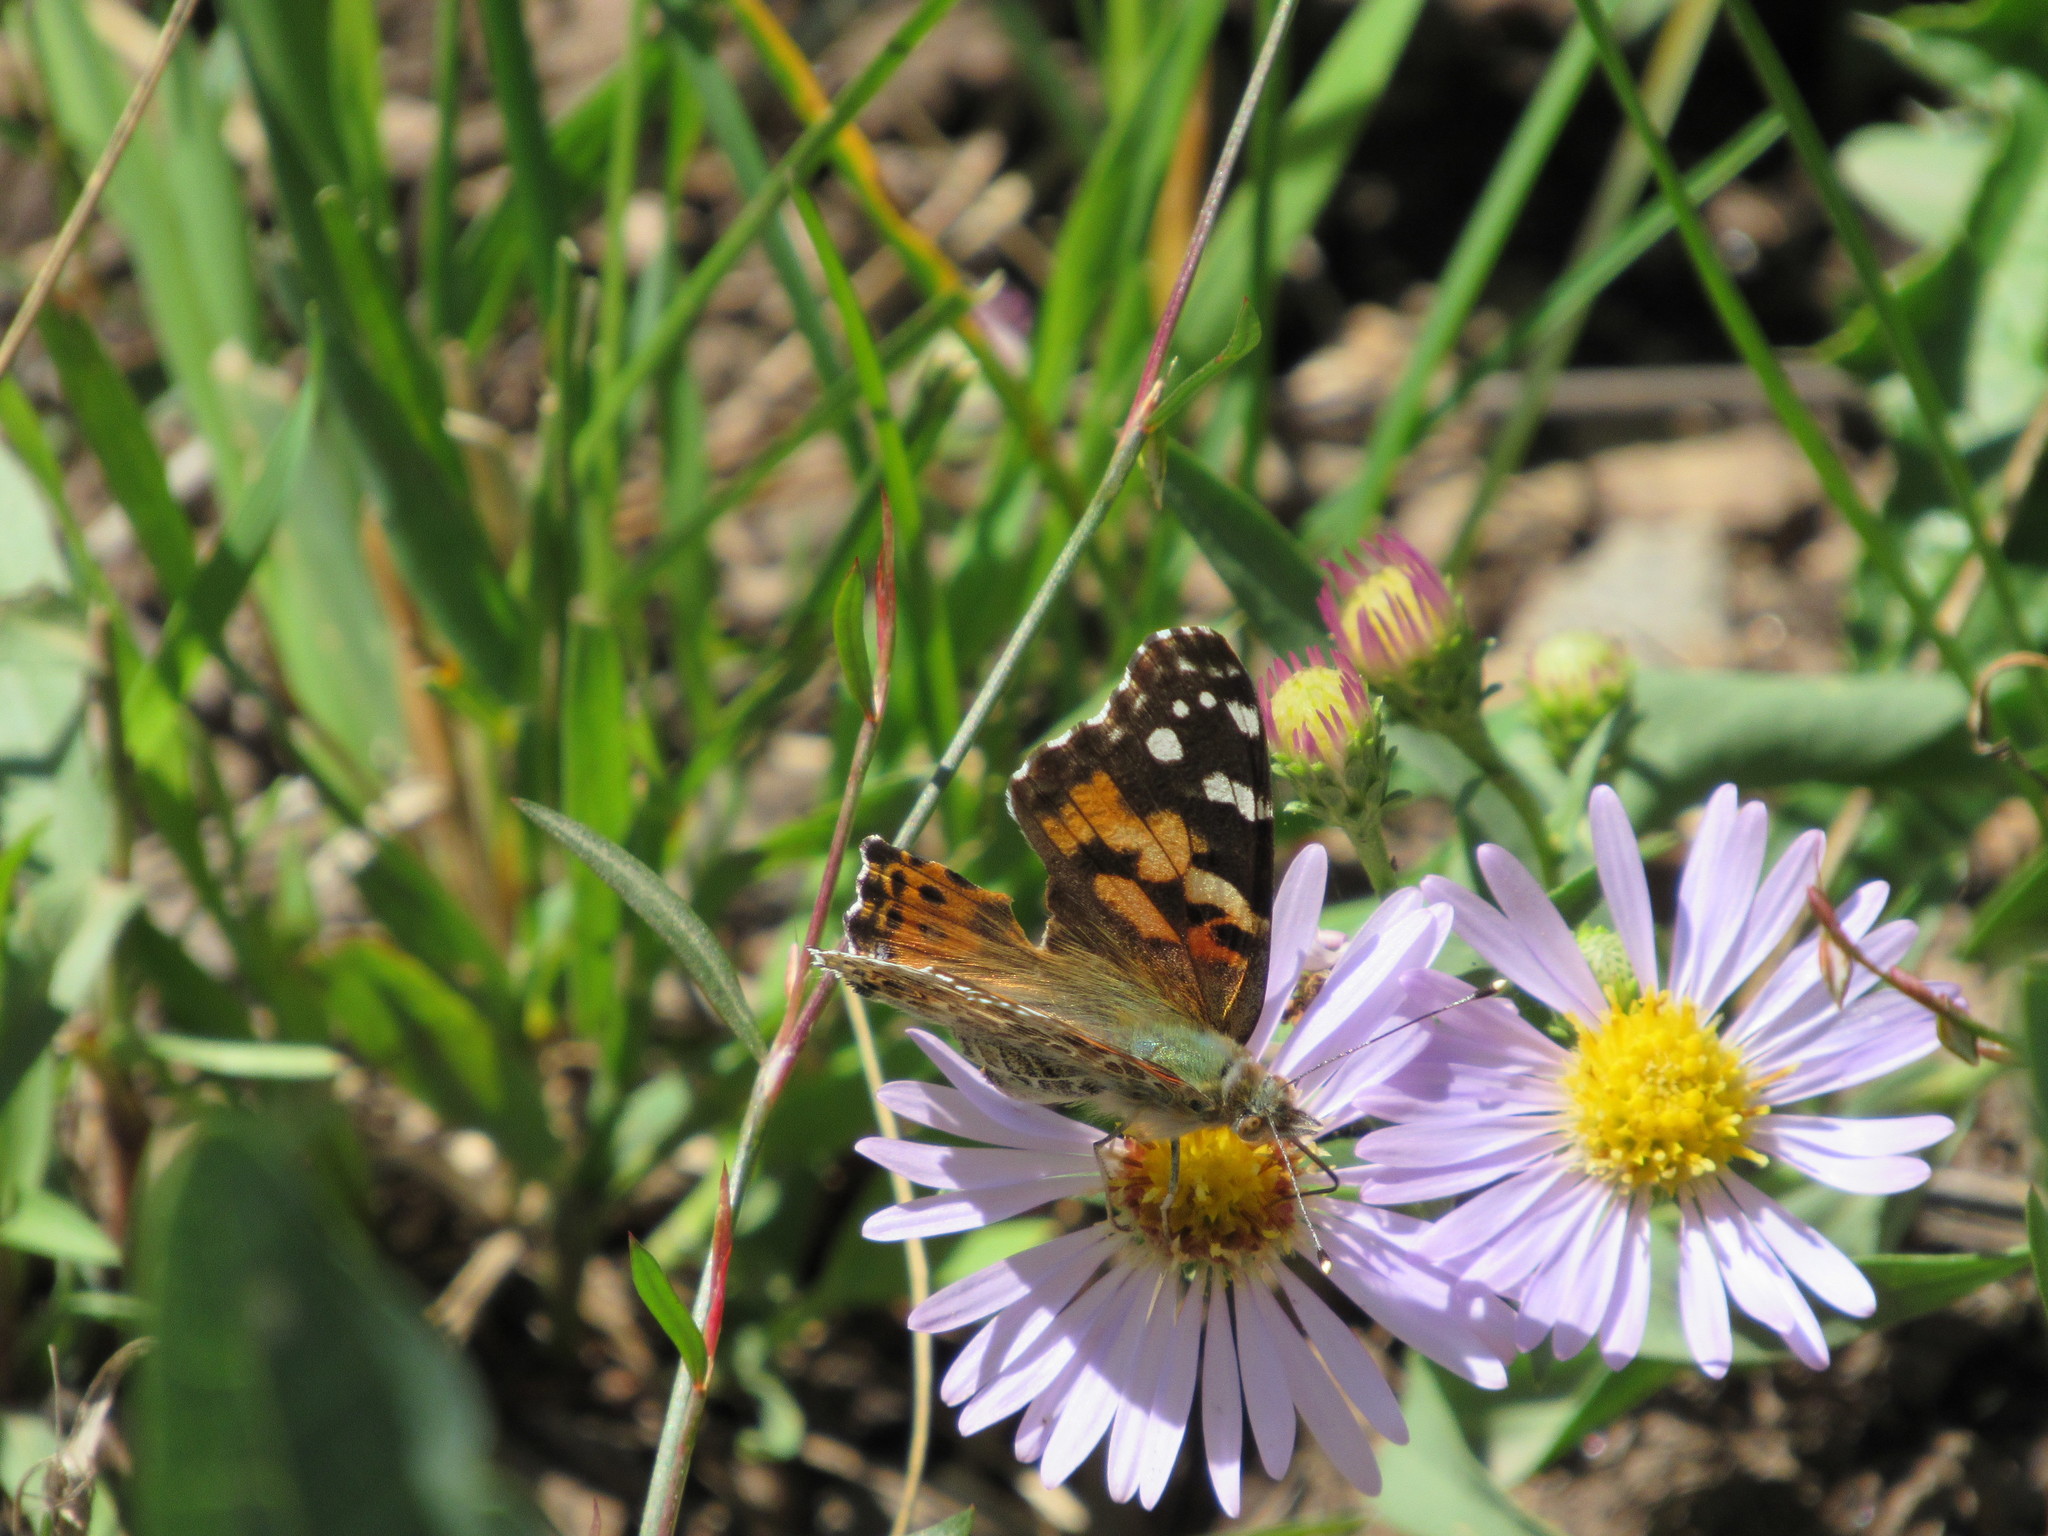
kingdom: Animalia
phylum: Arthropoda
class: Insecta
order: Lepidoptera
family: Nymphalidae
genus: Vanessa
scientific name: Vanessa cardui
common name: Painted lady
